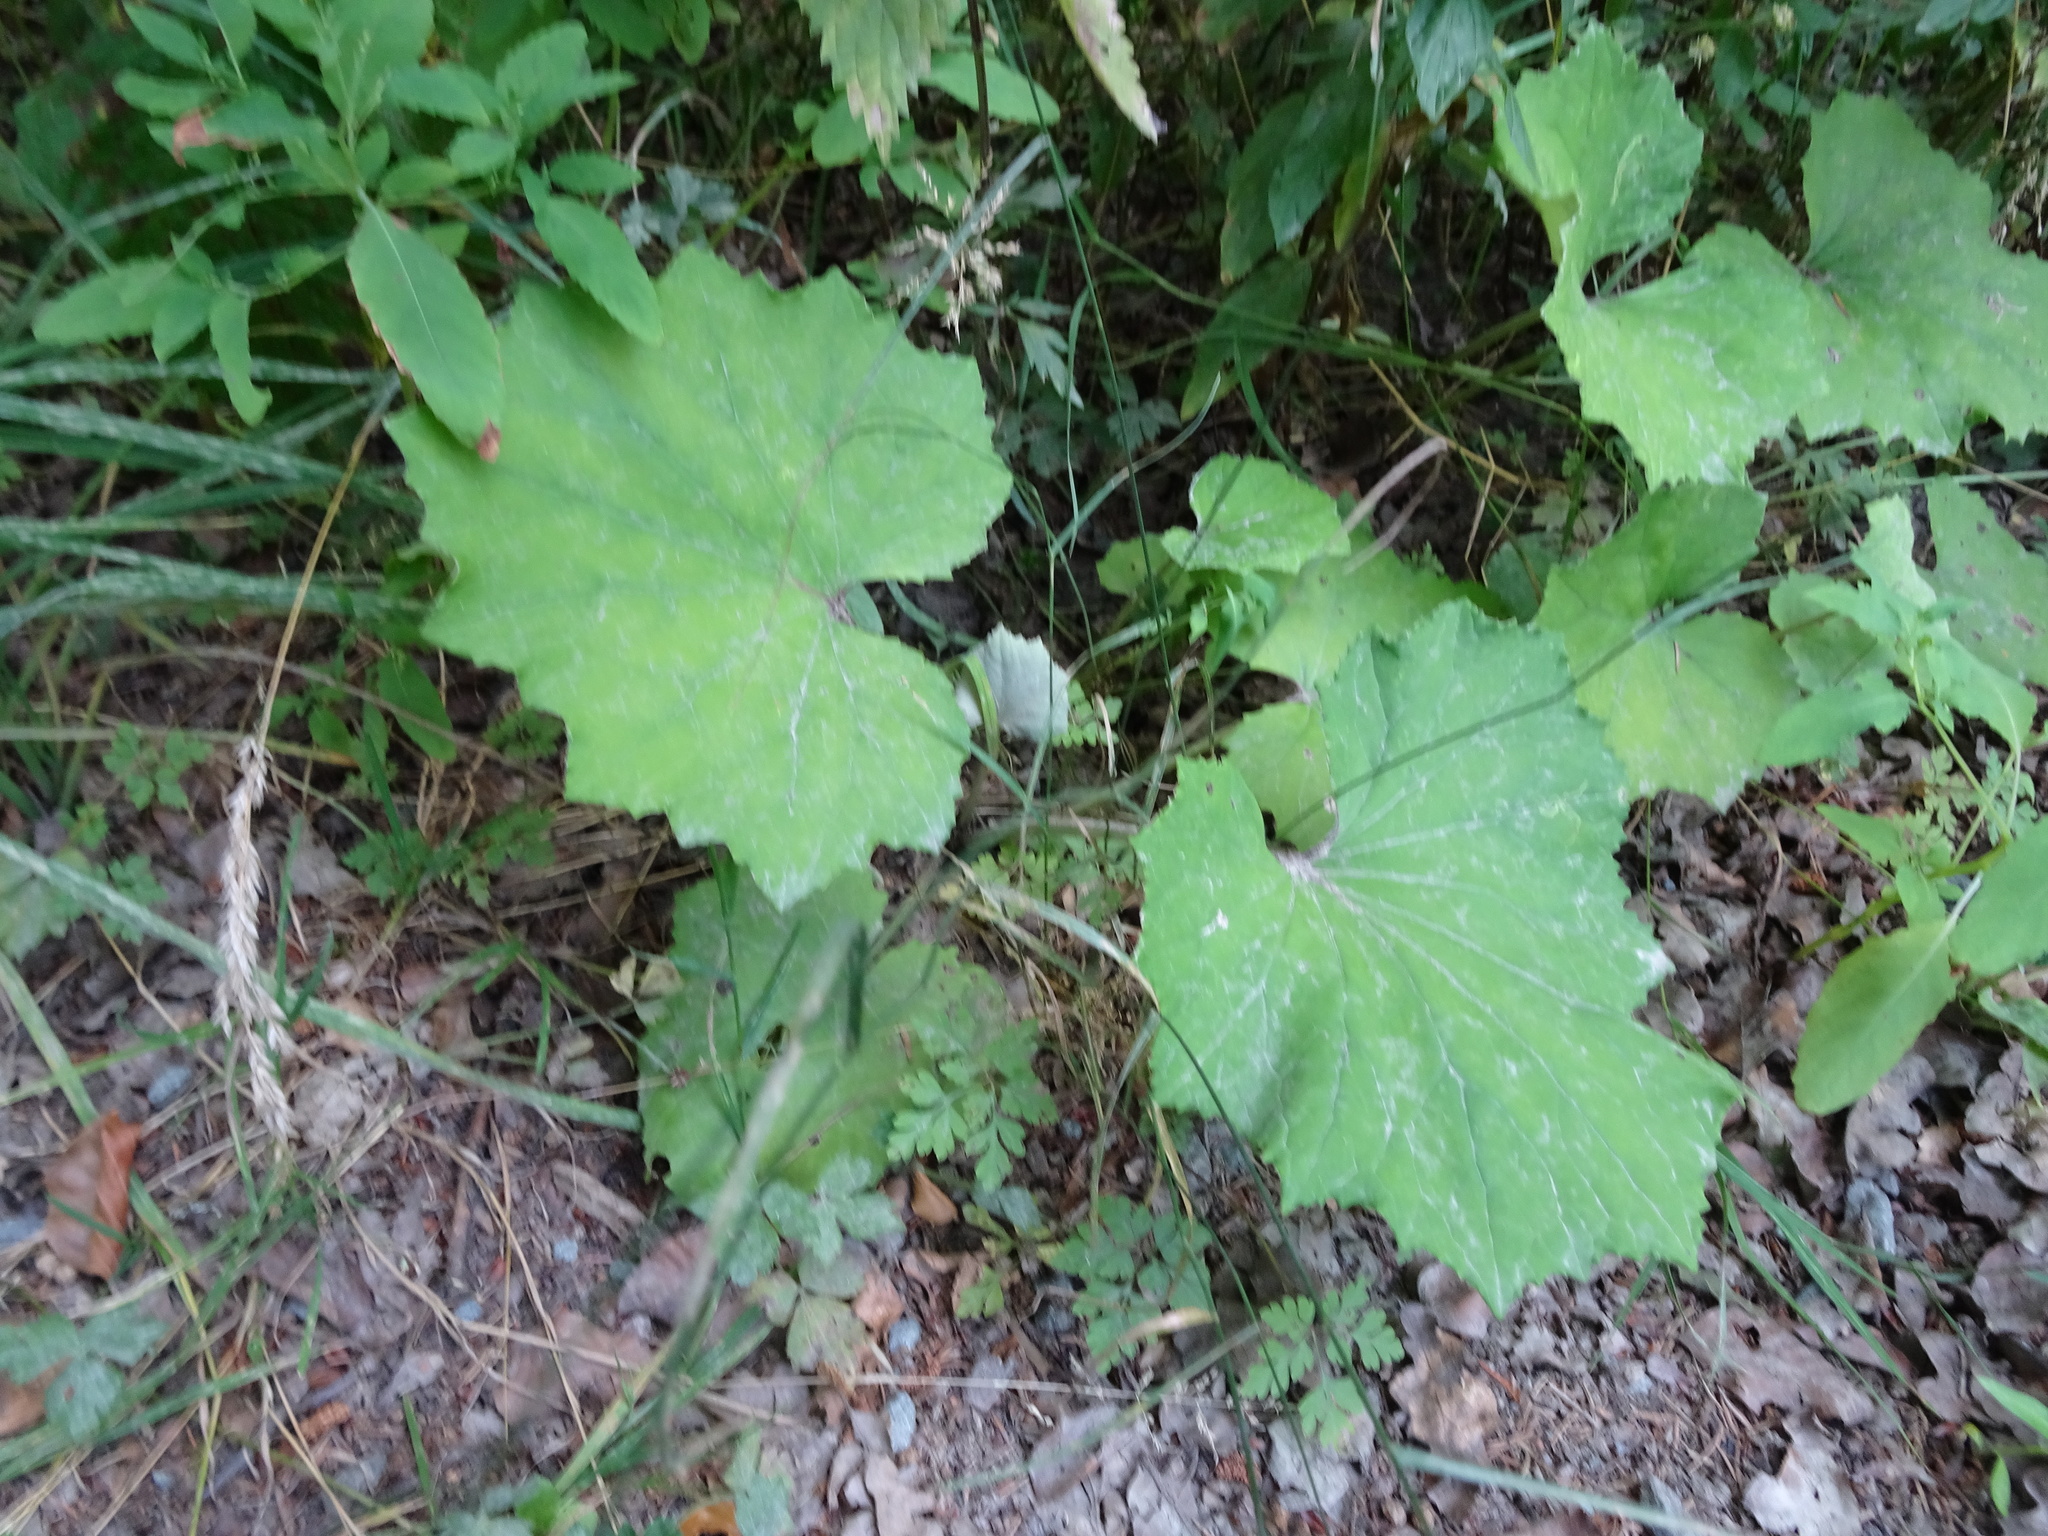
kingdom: Plantae
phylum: Tracheophyta
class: Magnoliopsida
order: Asterales
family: Asteraceae
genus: Tussilago
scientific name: Tussilago farfara
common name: Coltsfoot
